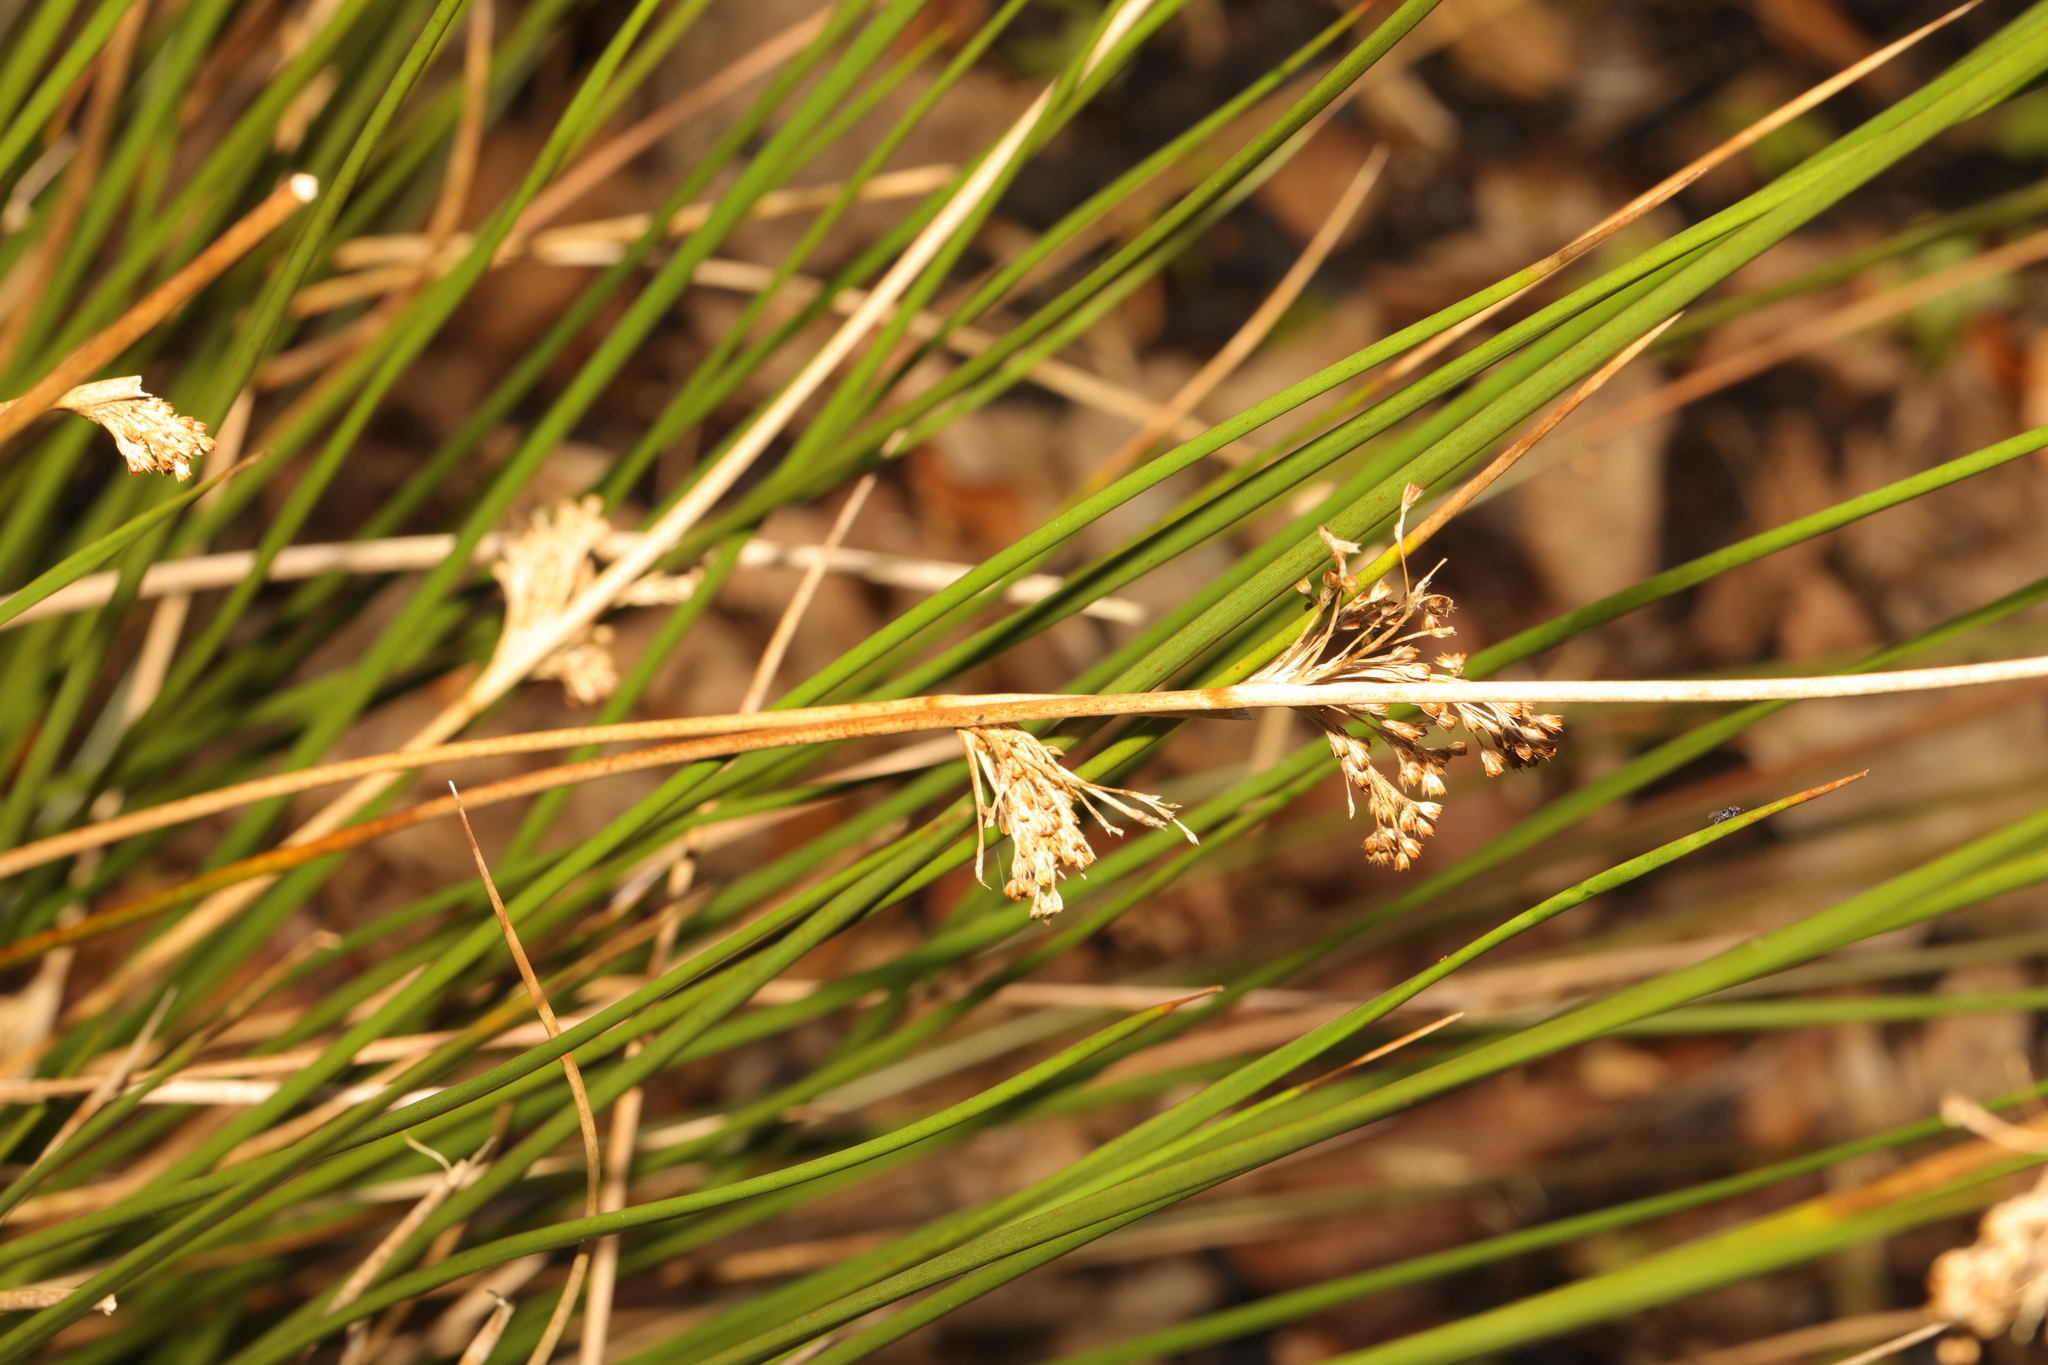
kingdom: Plantae
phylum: Tracheophyta
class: Liliopsida
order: Poales
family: Juncaceae
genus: Juncus
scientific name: Juncus effusus
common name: Soft rush
